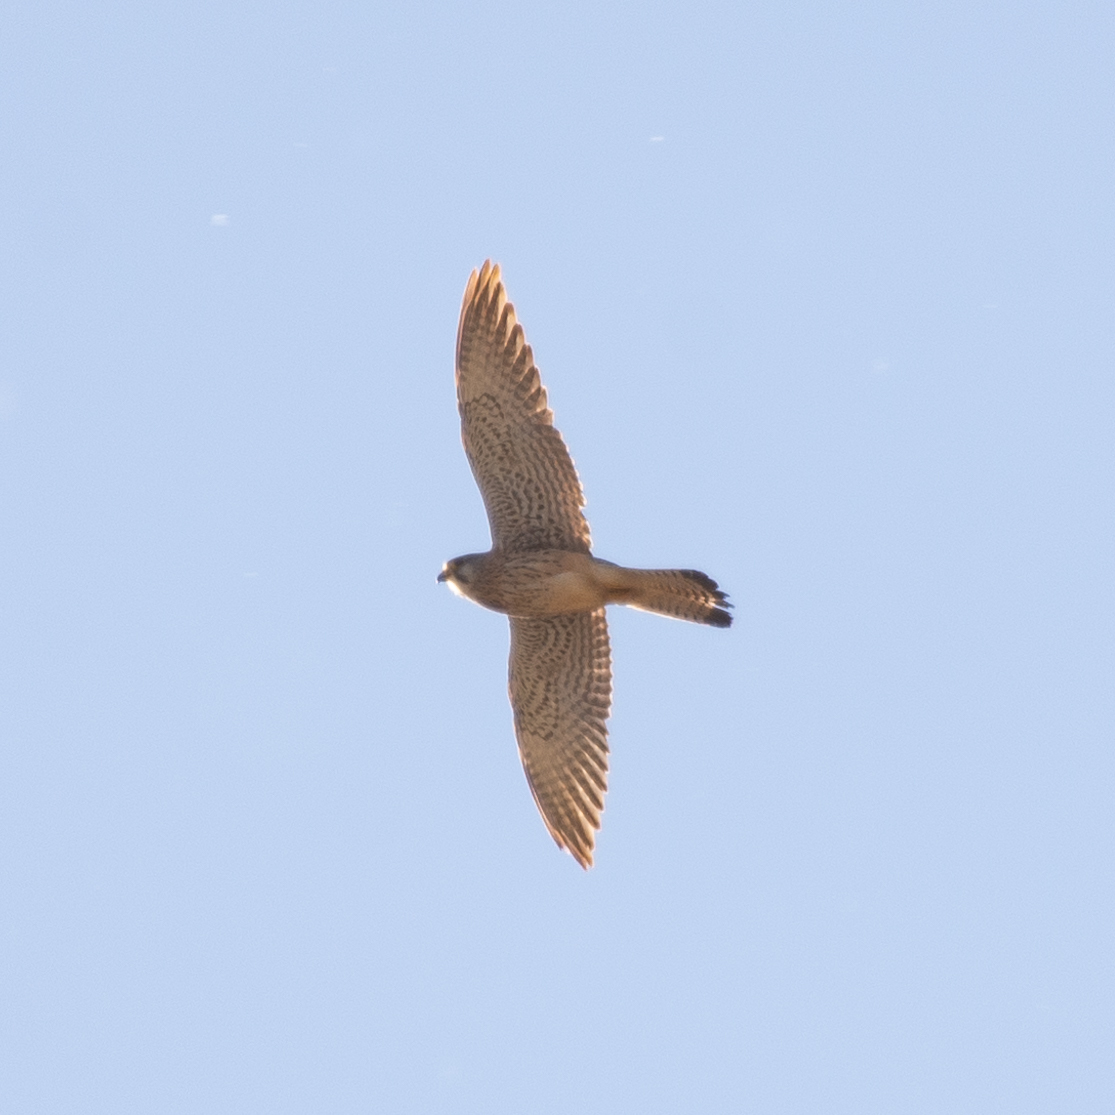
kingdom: Animalia
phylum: Chordata
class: Aves
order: Falconiformes
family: Falconidae
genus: Falco
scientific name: Falco tinnunculus
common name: Common kestrel
